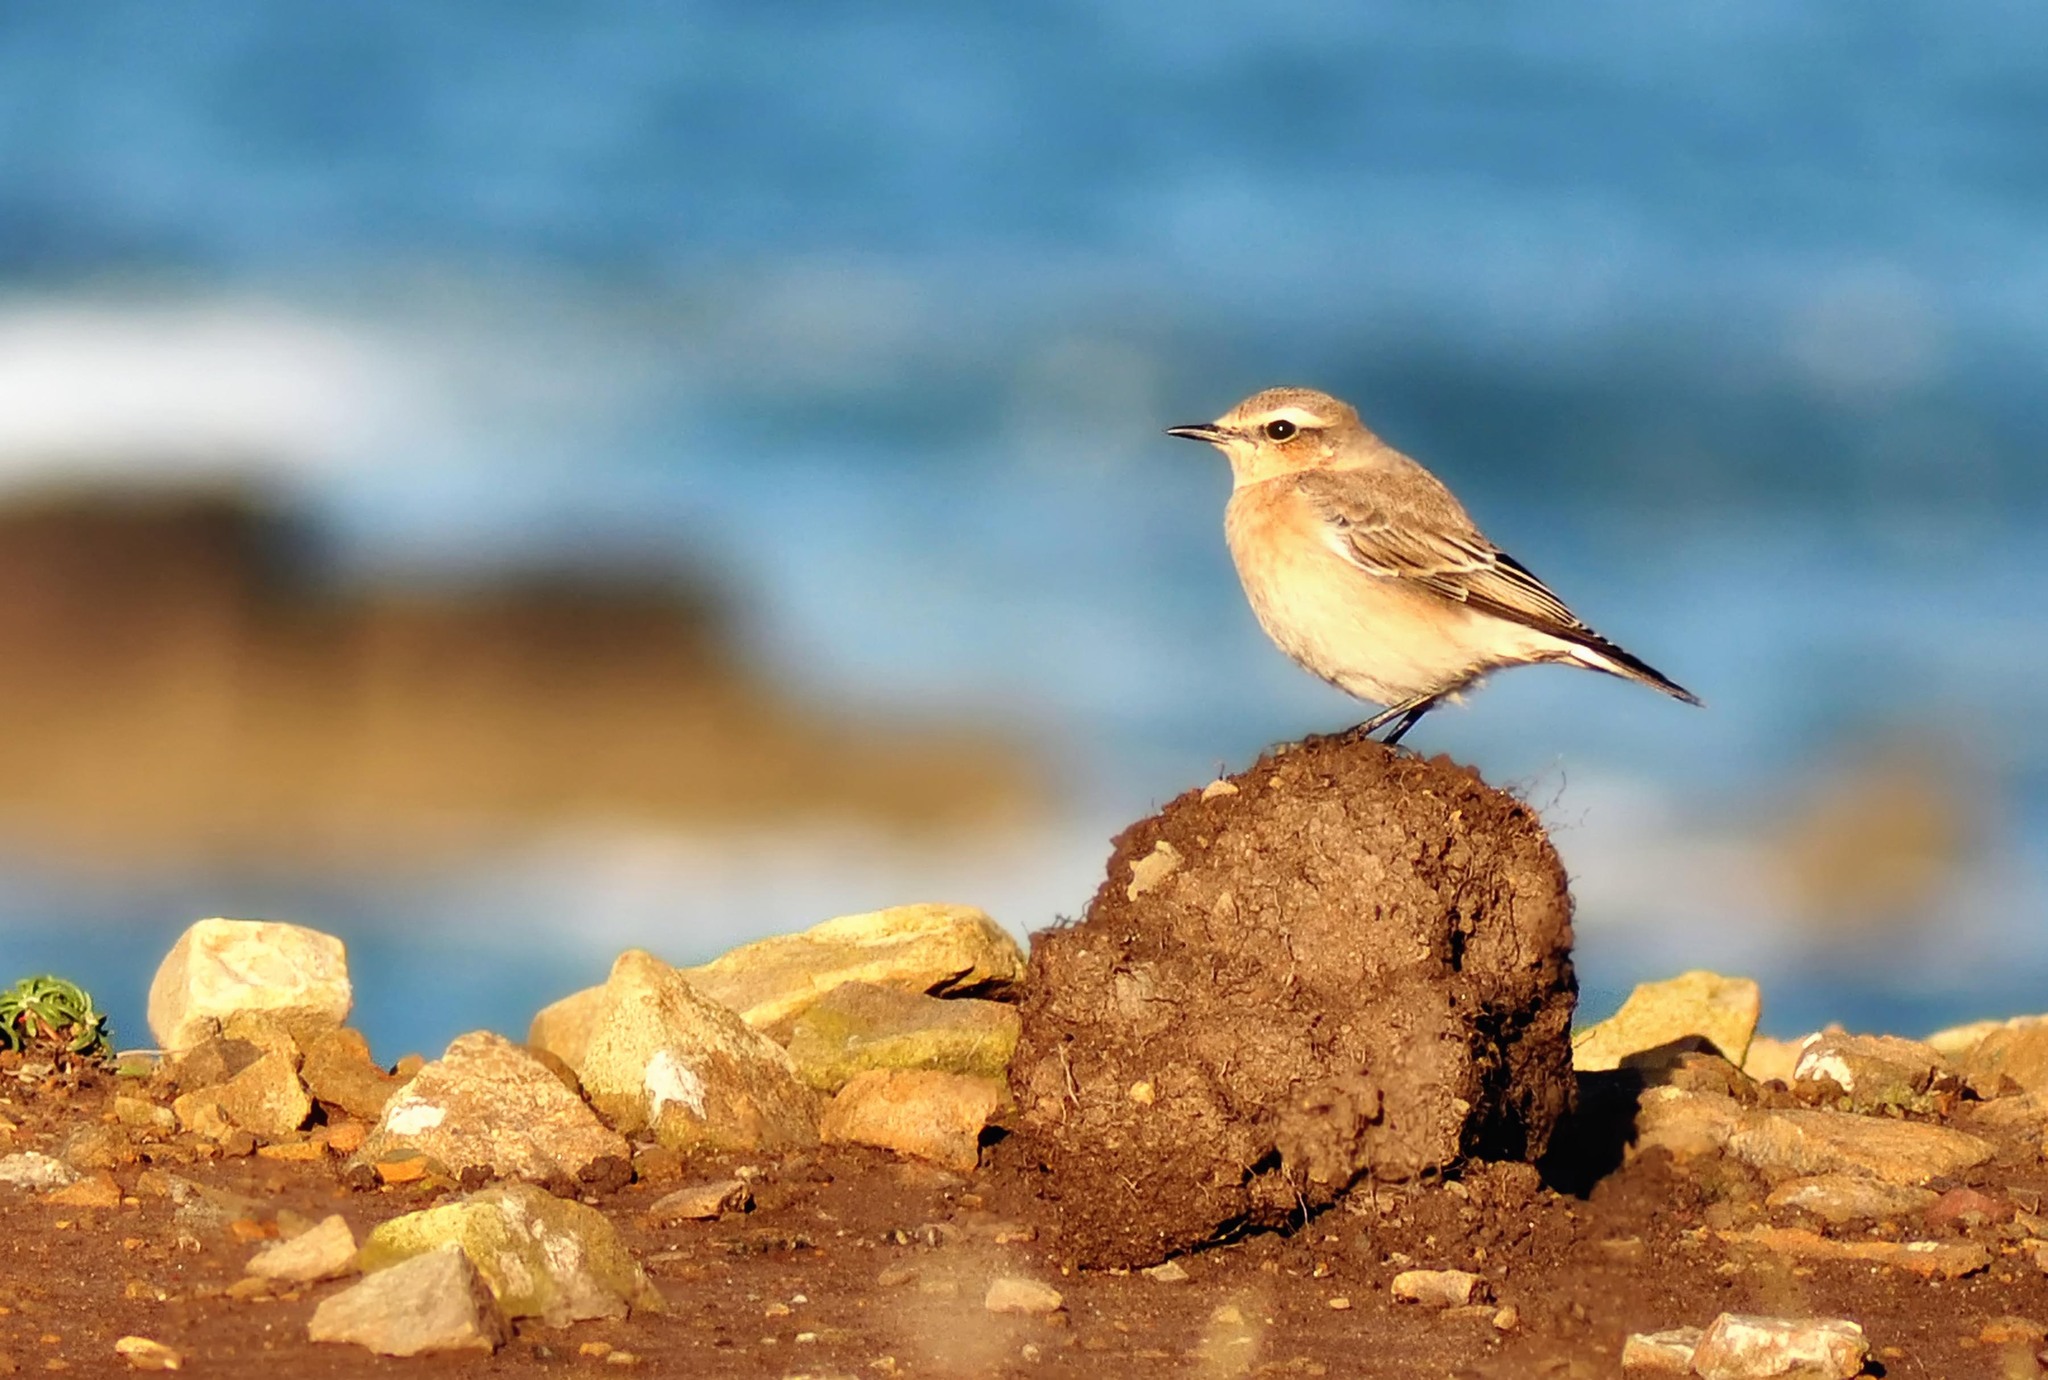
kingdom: Animalia
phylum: Chordata
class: Aves
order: Passeriformes
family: Muscicapidae
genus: Oenanthe
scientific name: Oenanthe oenanthe
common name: Northern wheatear
